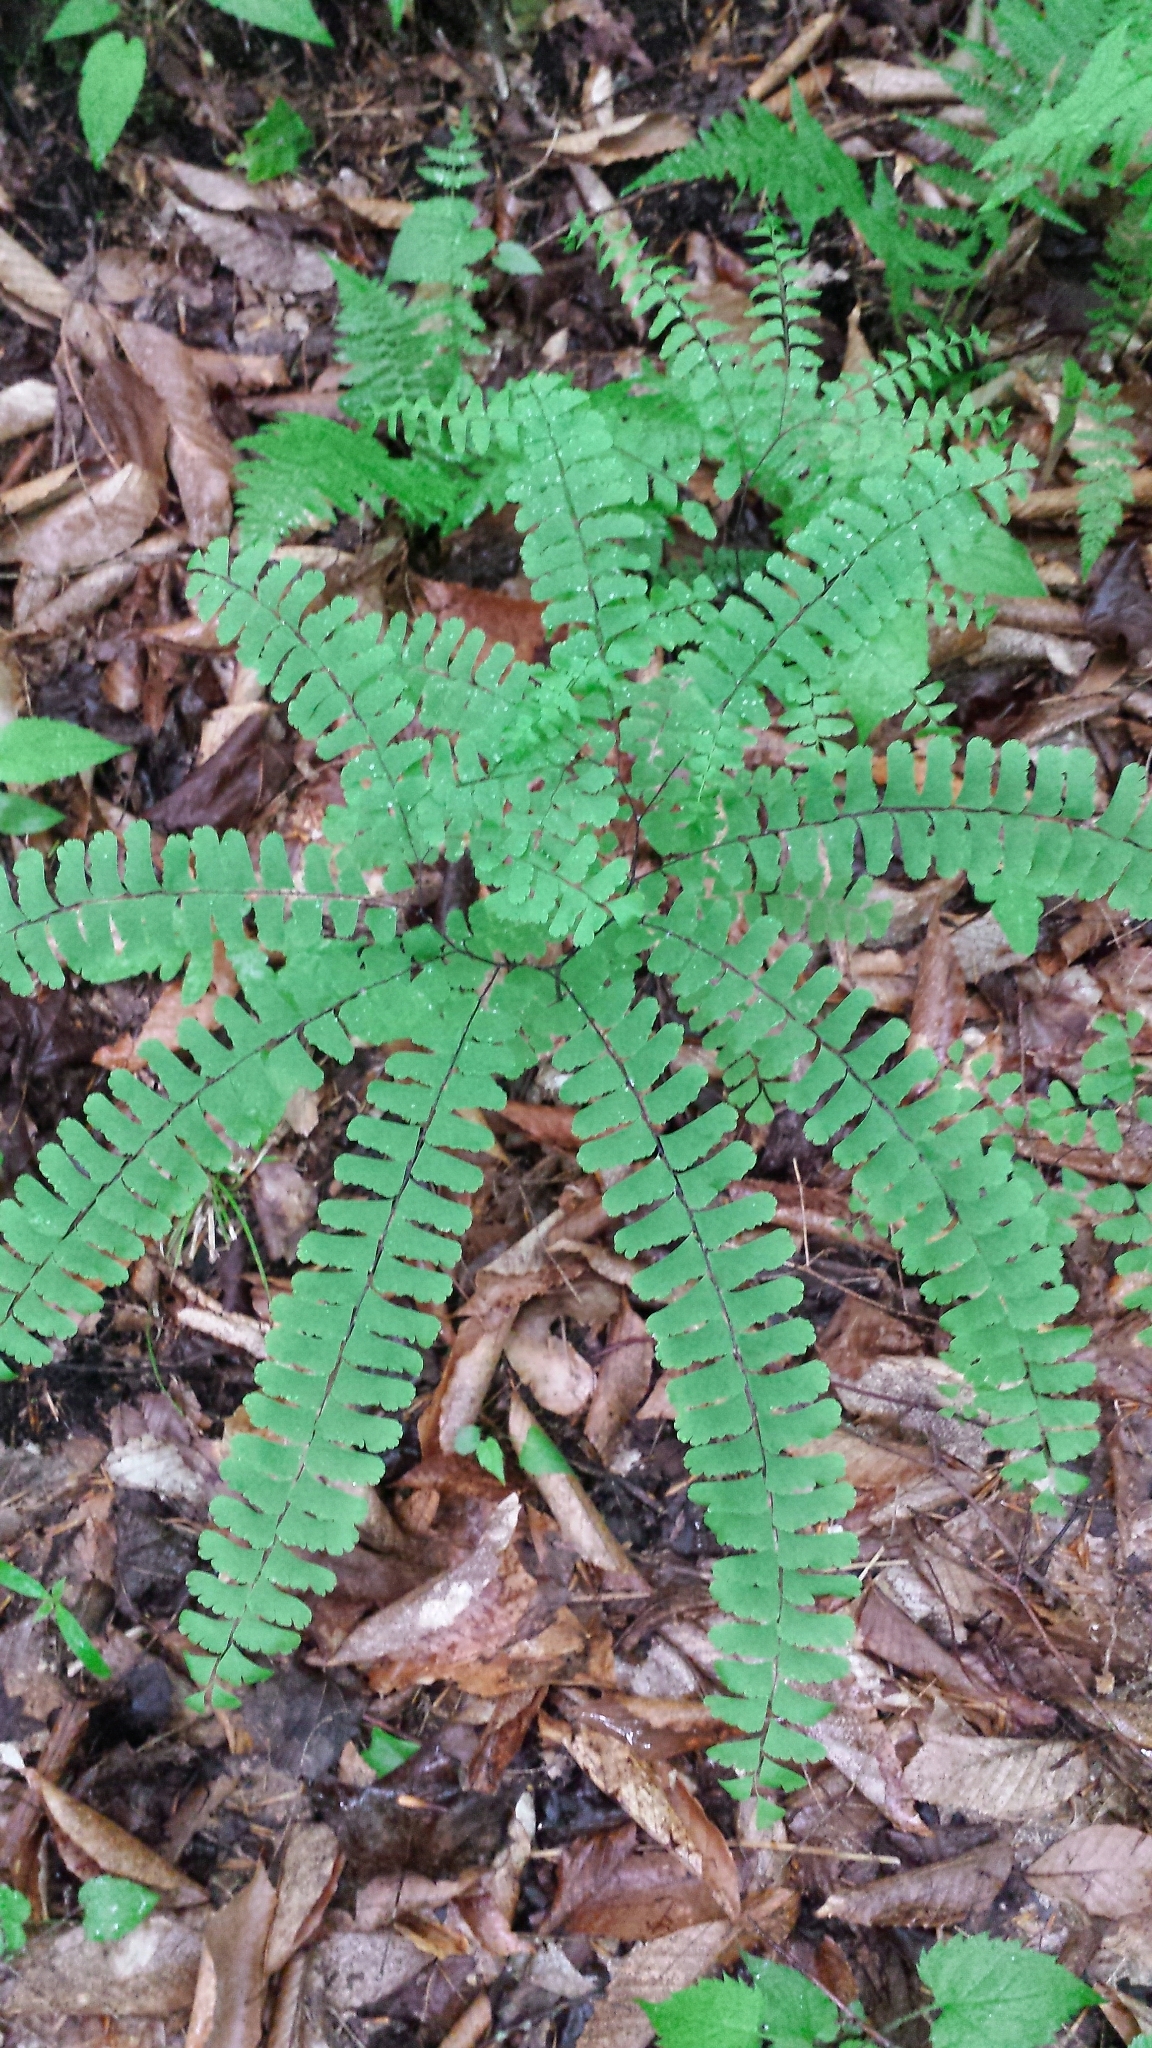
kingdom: Plantae
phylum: Tracheophyta
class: Polypodiopsida
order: Polypodiales
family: Pteridaceae
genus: Adiantum
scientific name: Adiantum pedatum
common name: Five-finger fern
